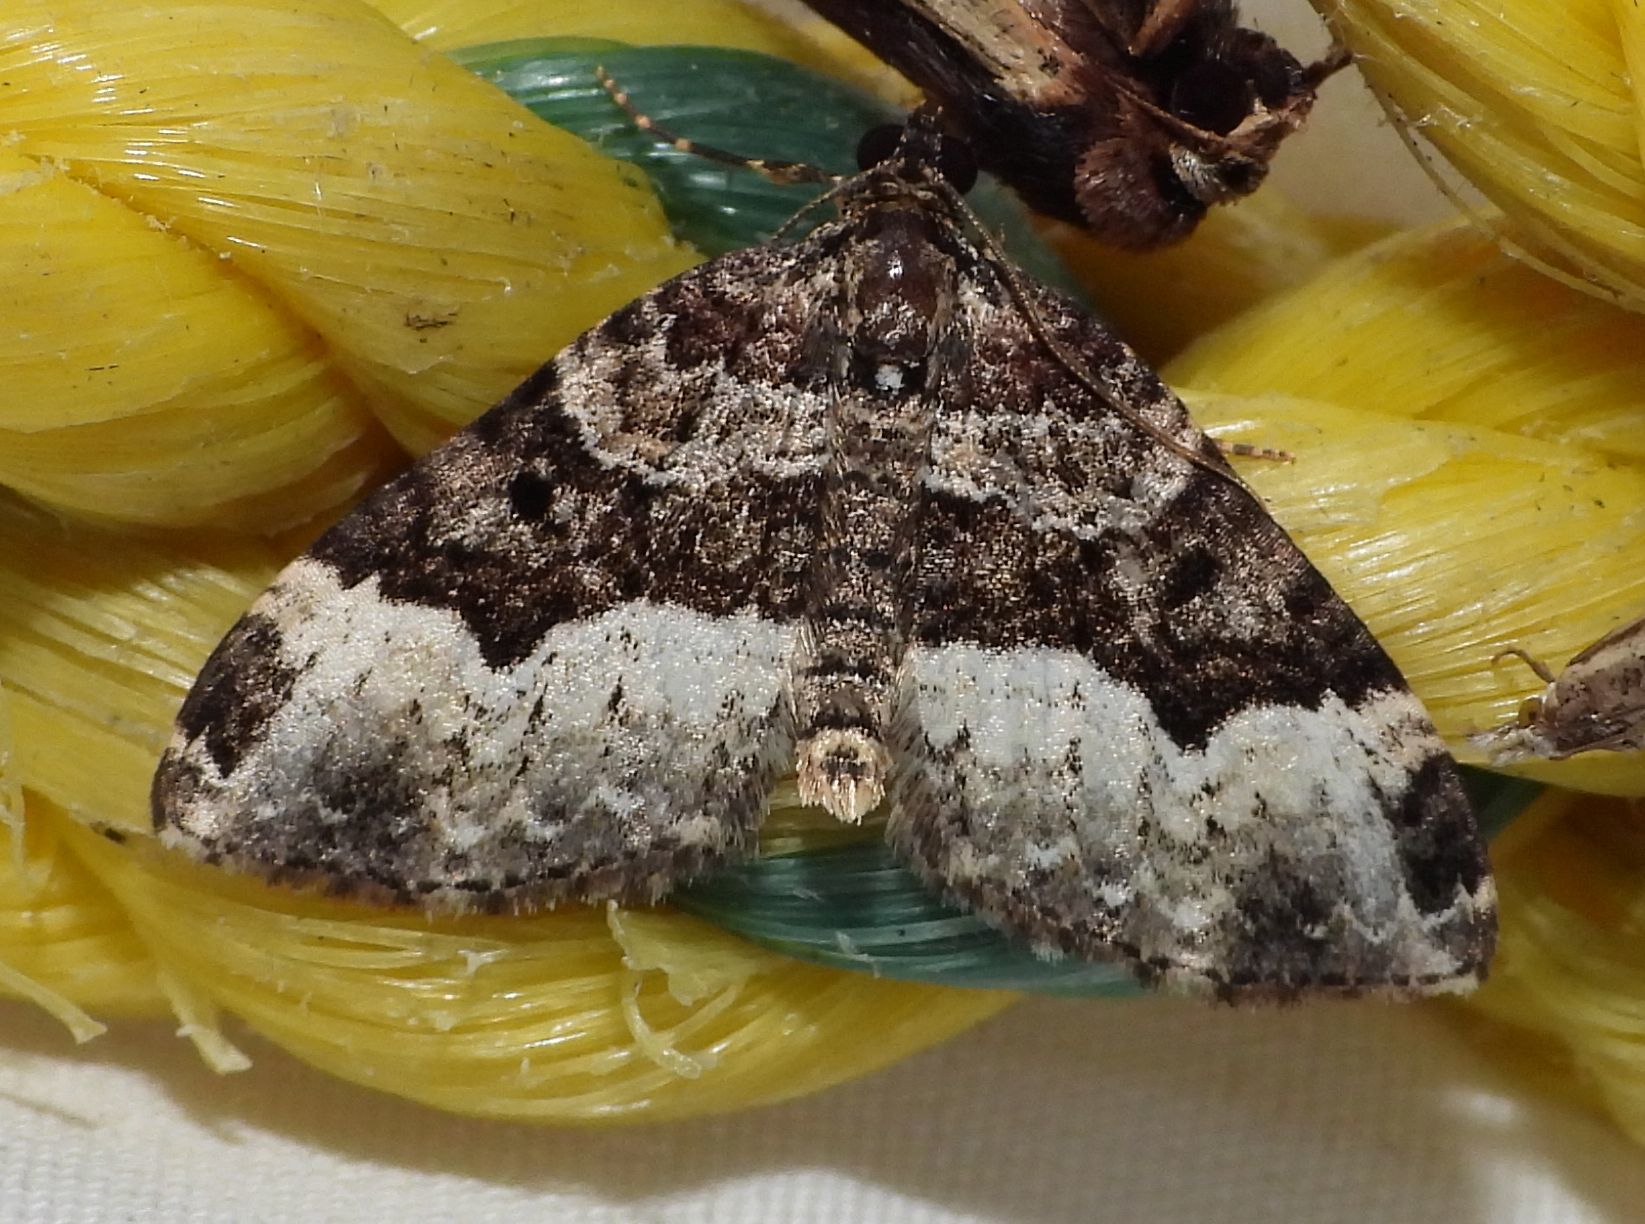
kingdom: Animalia
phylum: Arthropoda
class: Insecta
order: Lepidoptera
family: Geometridae
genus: Euphyia
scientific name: Euphyia intermediata
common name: Sharp-angled carpet
